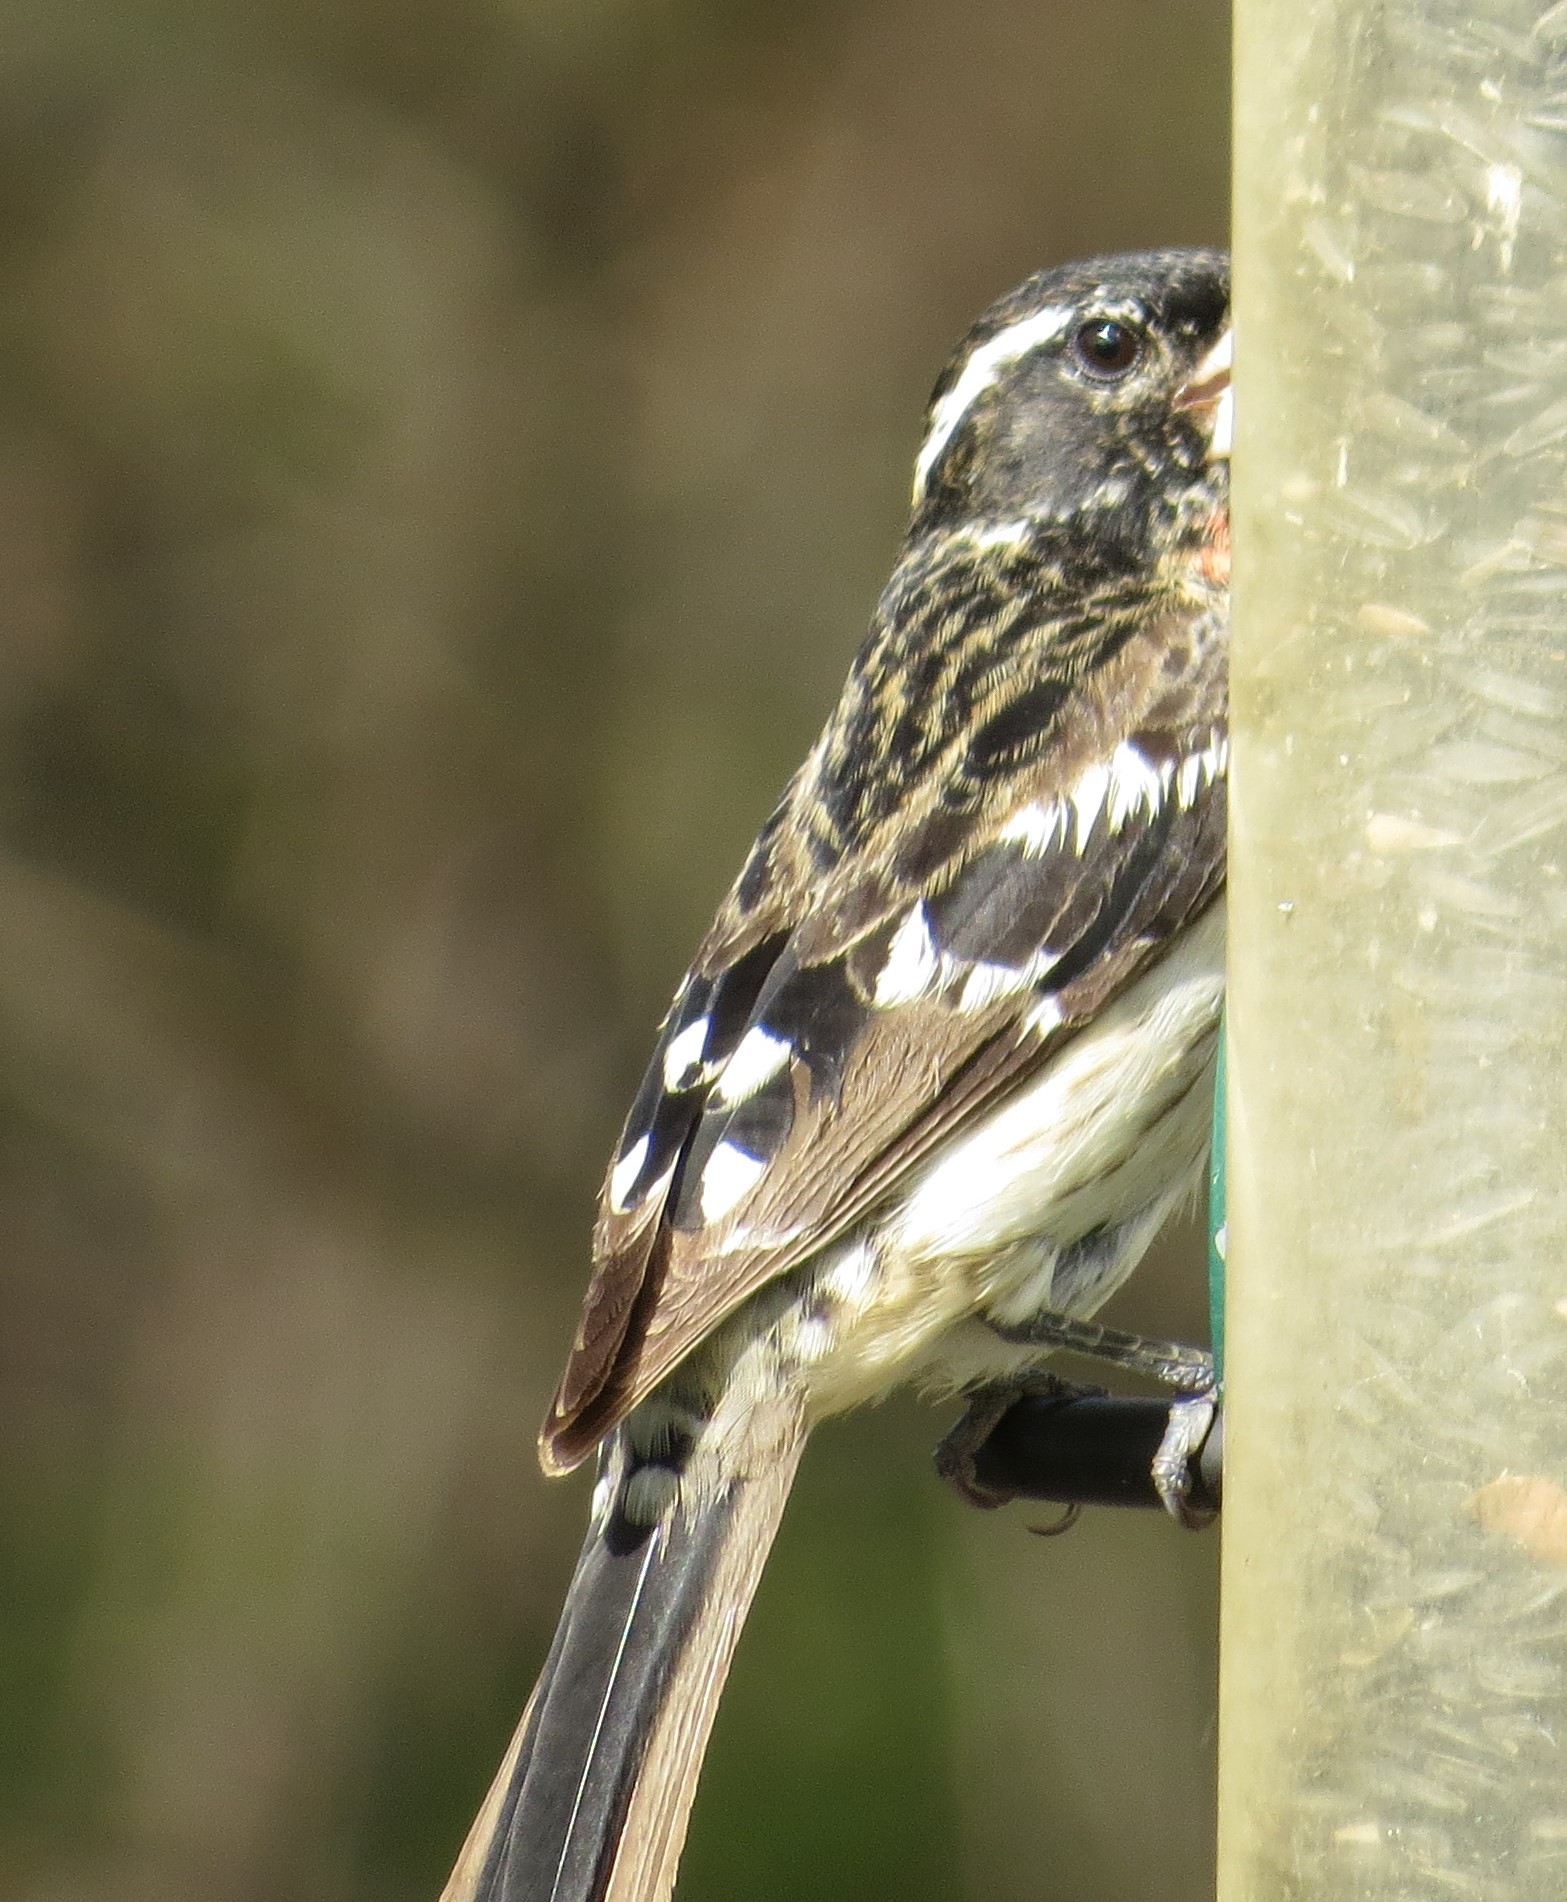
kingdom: Animalia
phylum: Chordata
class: Aves
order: Passeriformes
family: Cardinalidae
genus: Pheucticus
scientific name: Pheucticus ludovicianus
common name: Rose-breasted grosbeak
